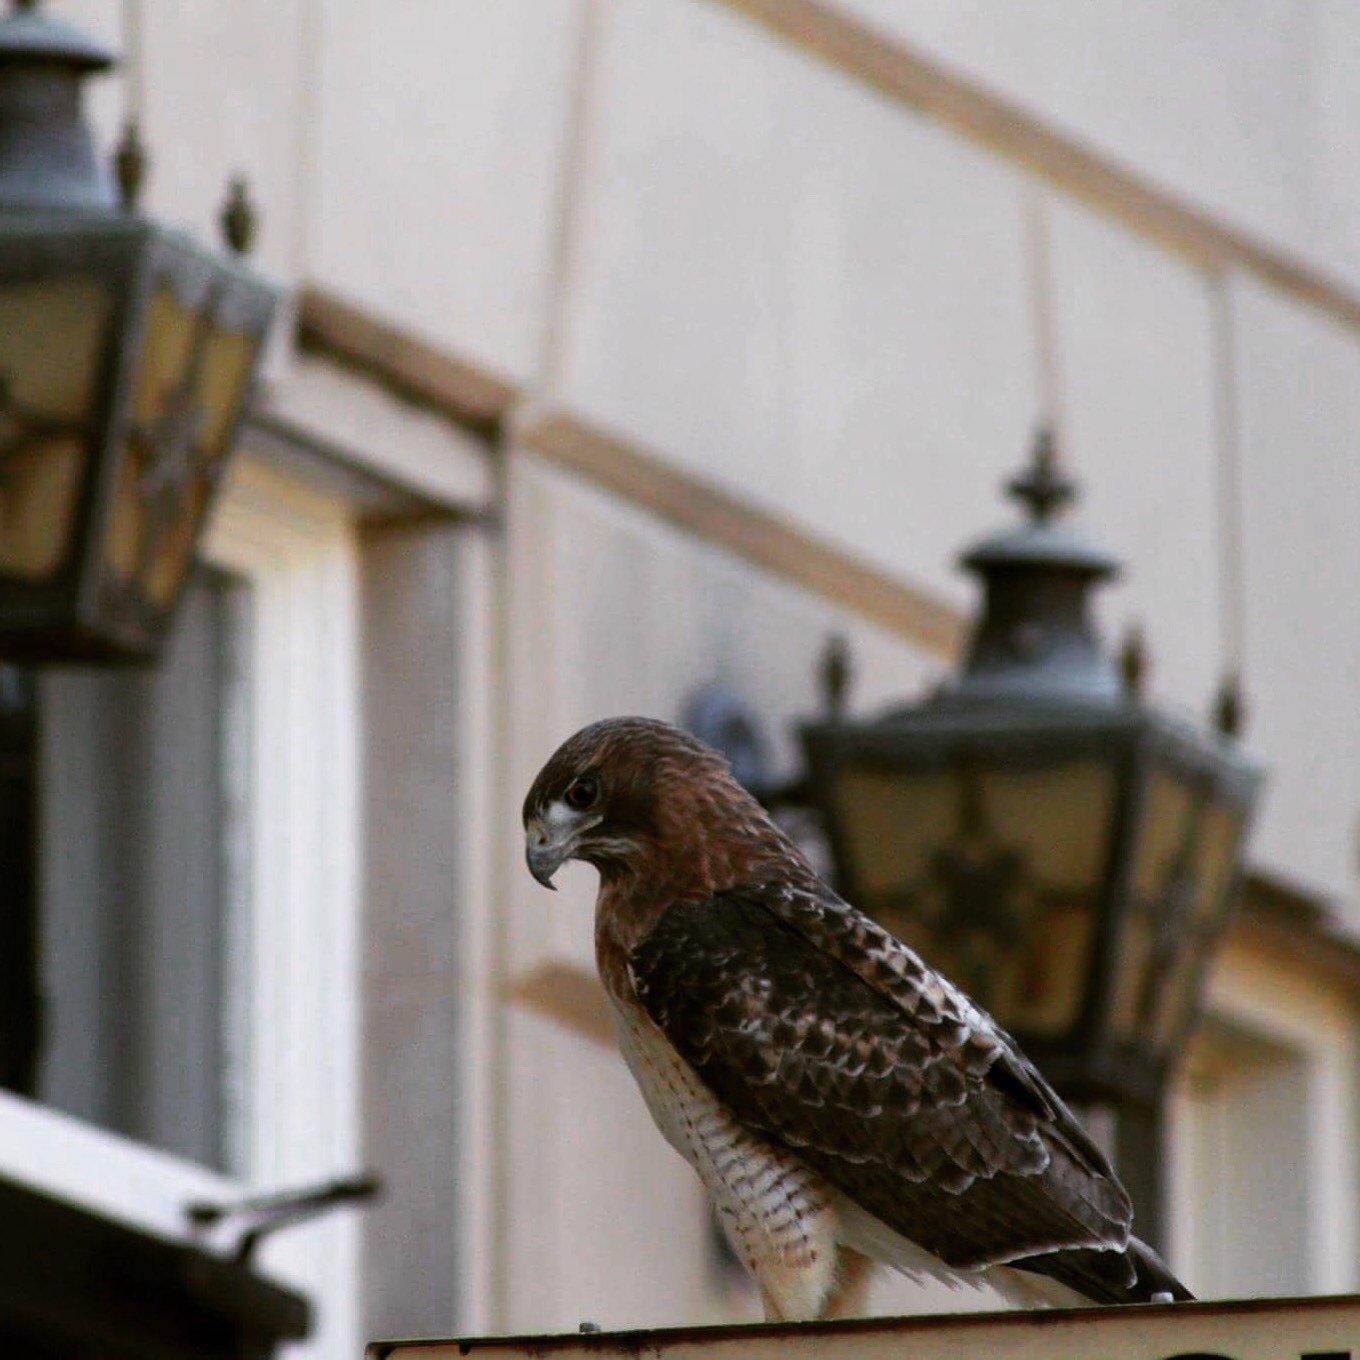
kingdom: Animalia
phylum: Chordata
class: Aves
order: Accipitriformes
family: Accipitridae
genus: Buteo
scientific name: Buteo jamaicensis
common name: Red-tailed hawk
